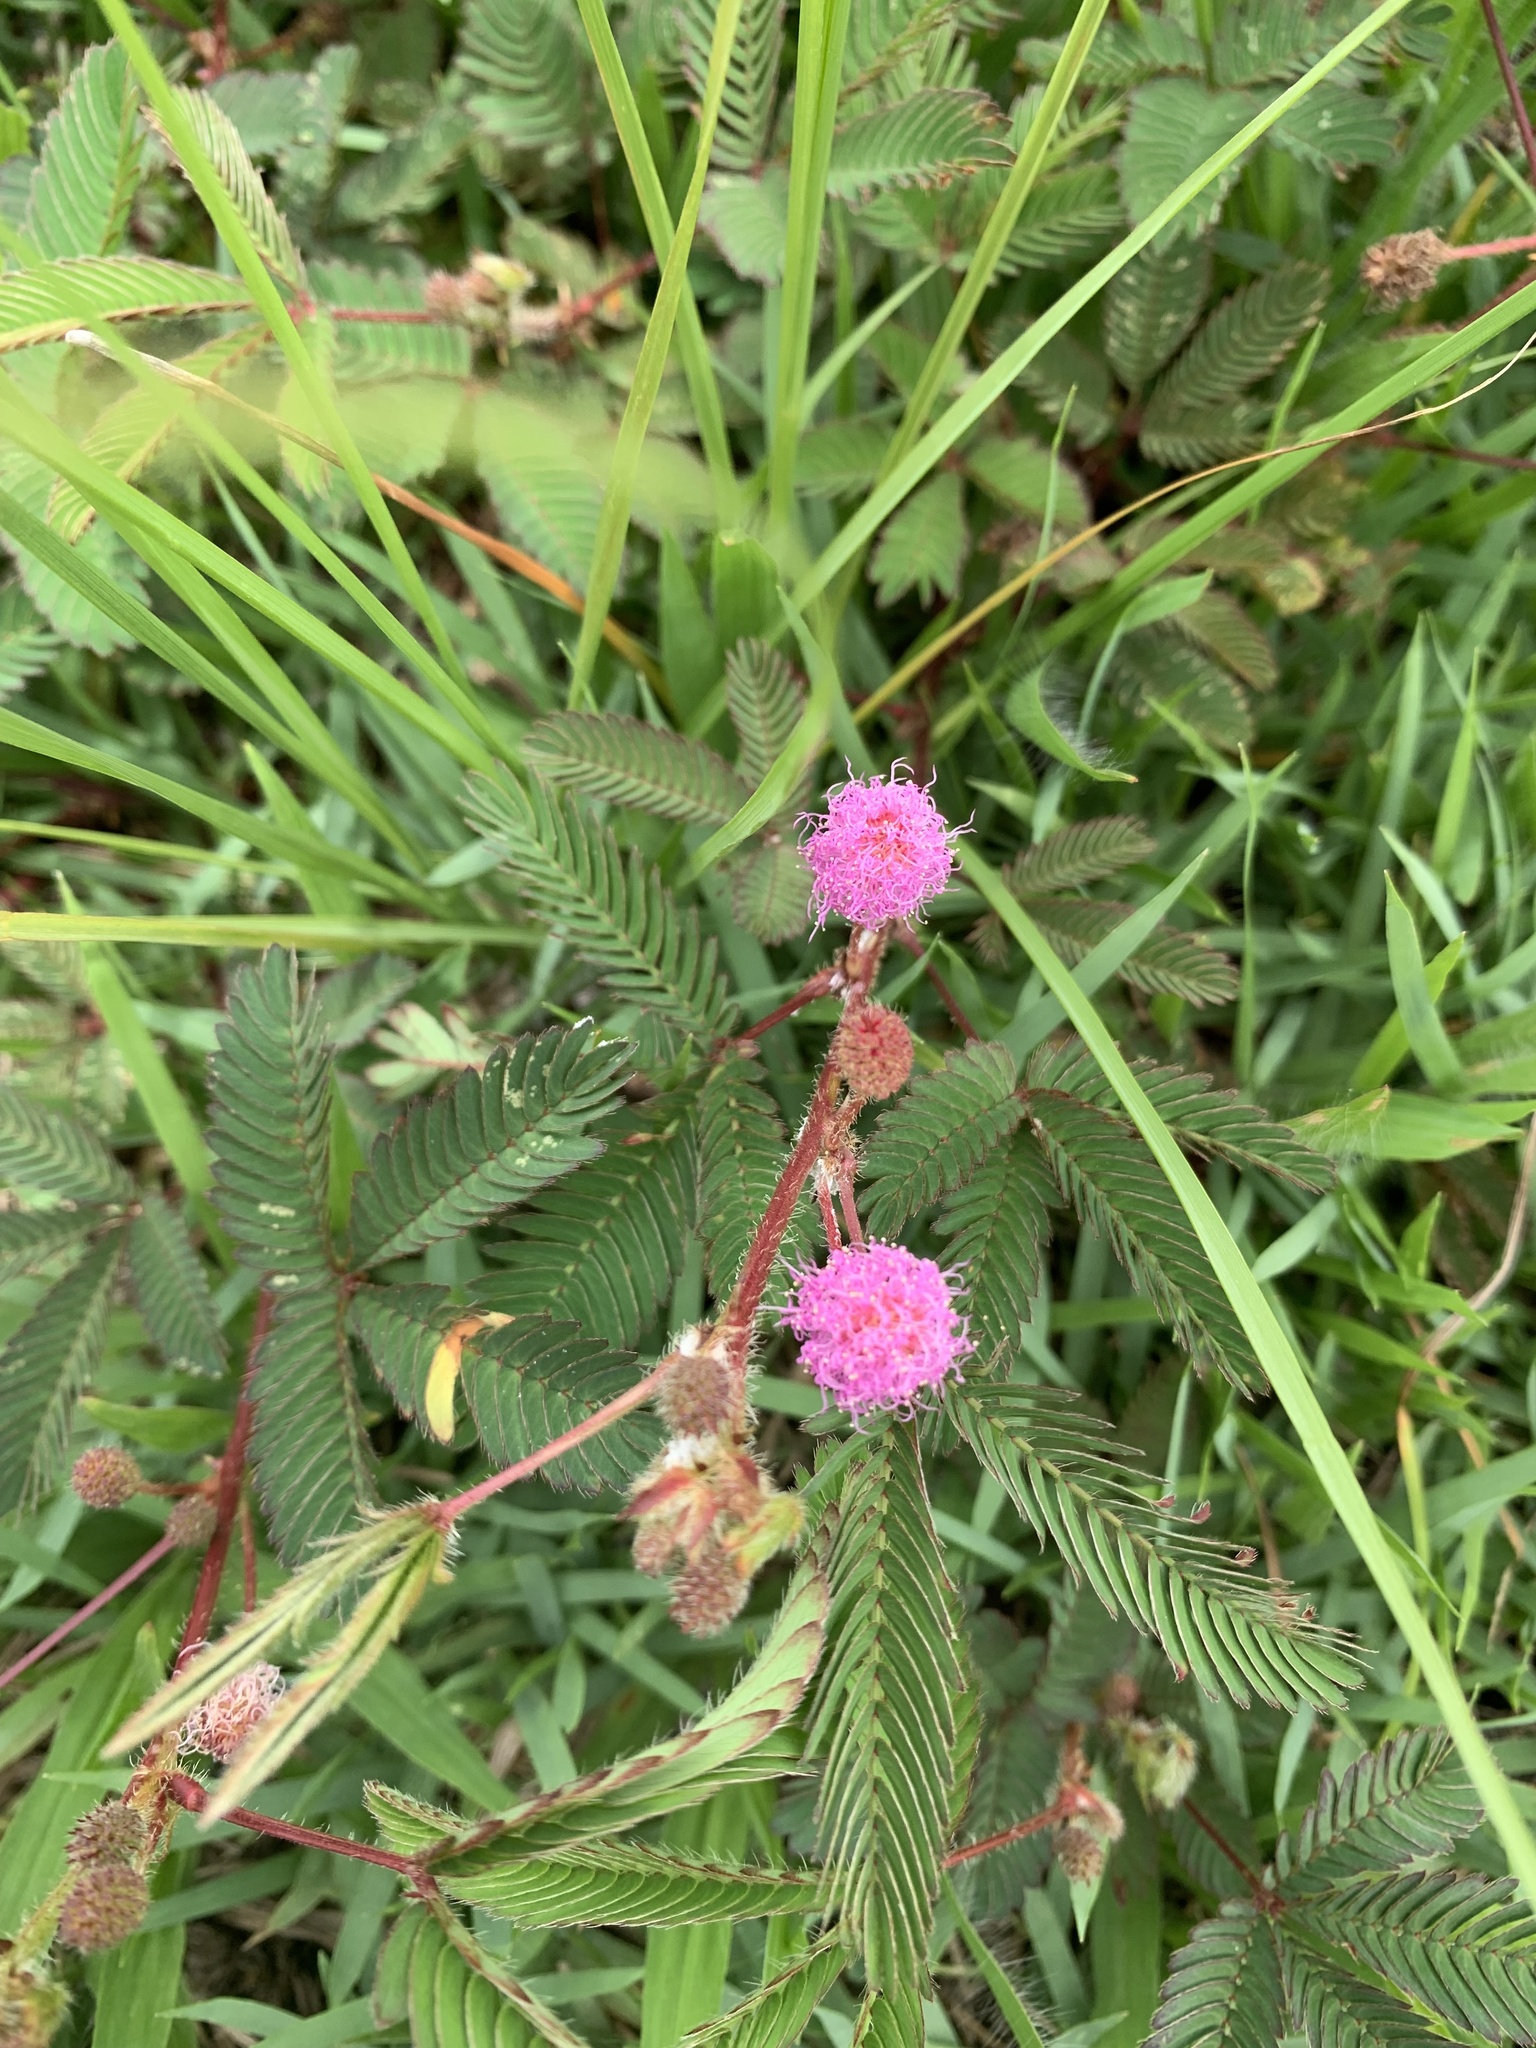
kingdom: Plantae
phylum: Tracheophyta
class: Magnoliopsida
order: Fabales
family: Fabaceae
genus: Mimosa
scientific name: Mimosa pudica
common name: Sensitive plant
